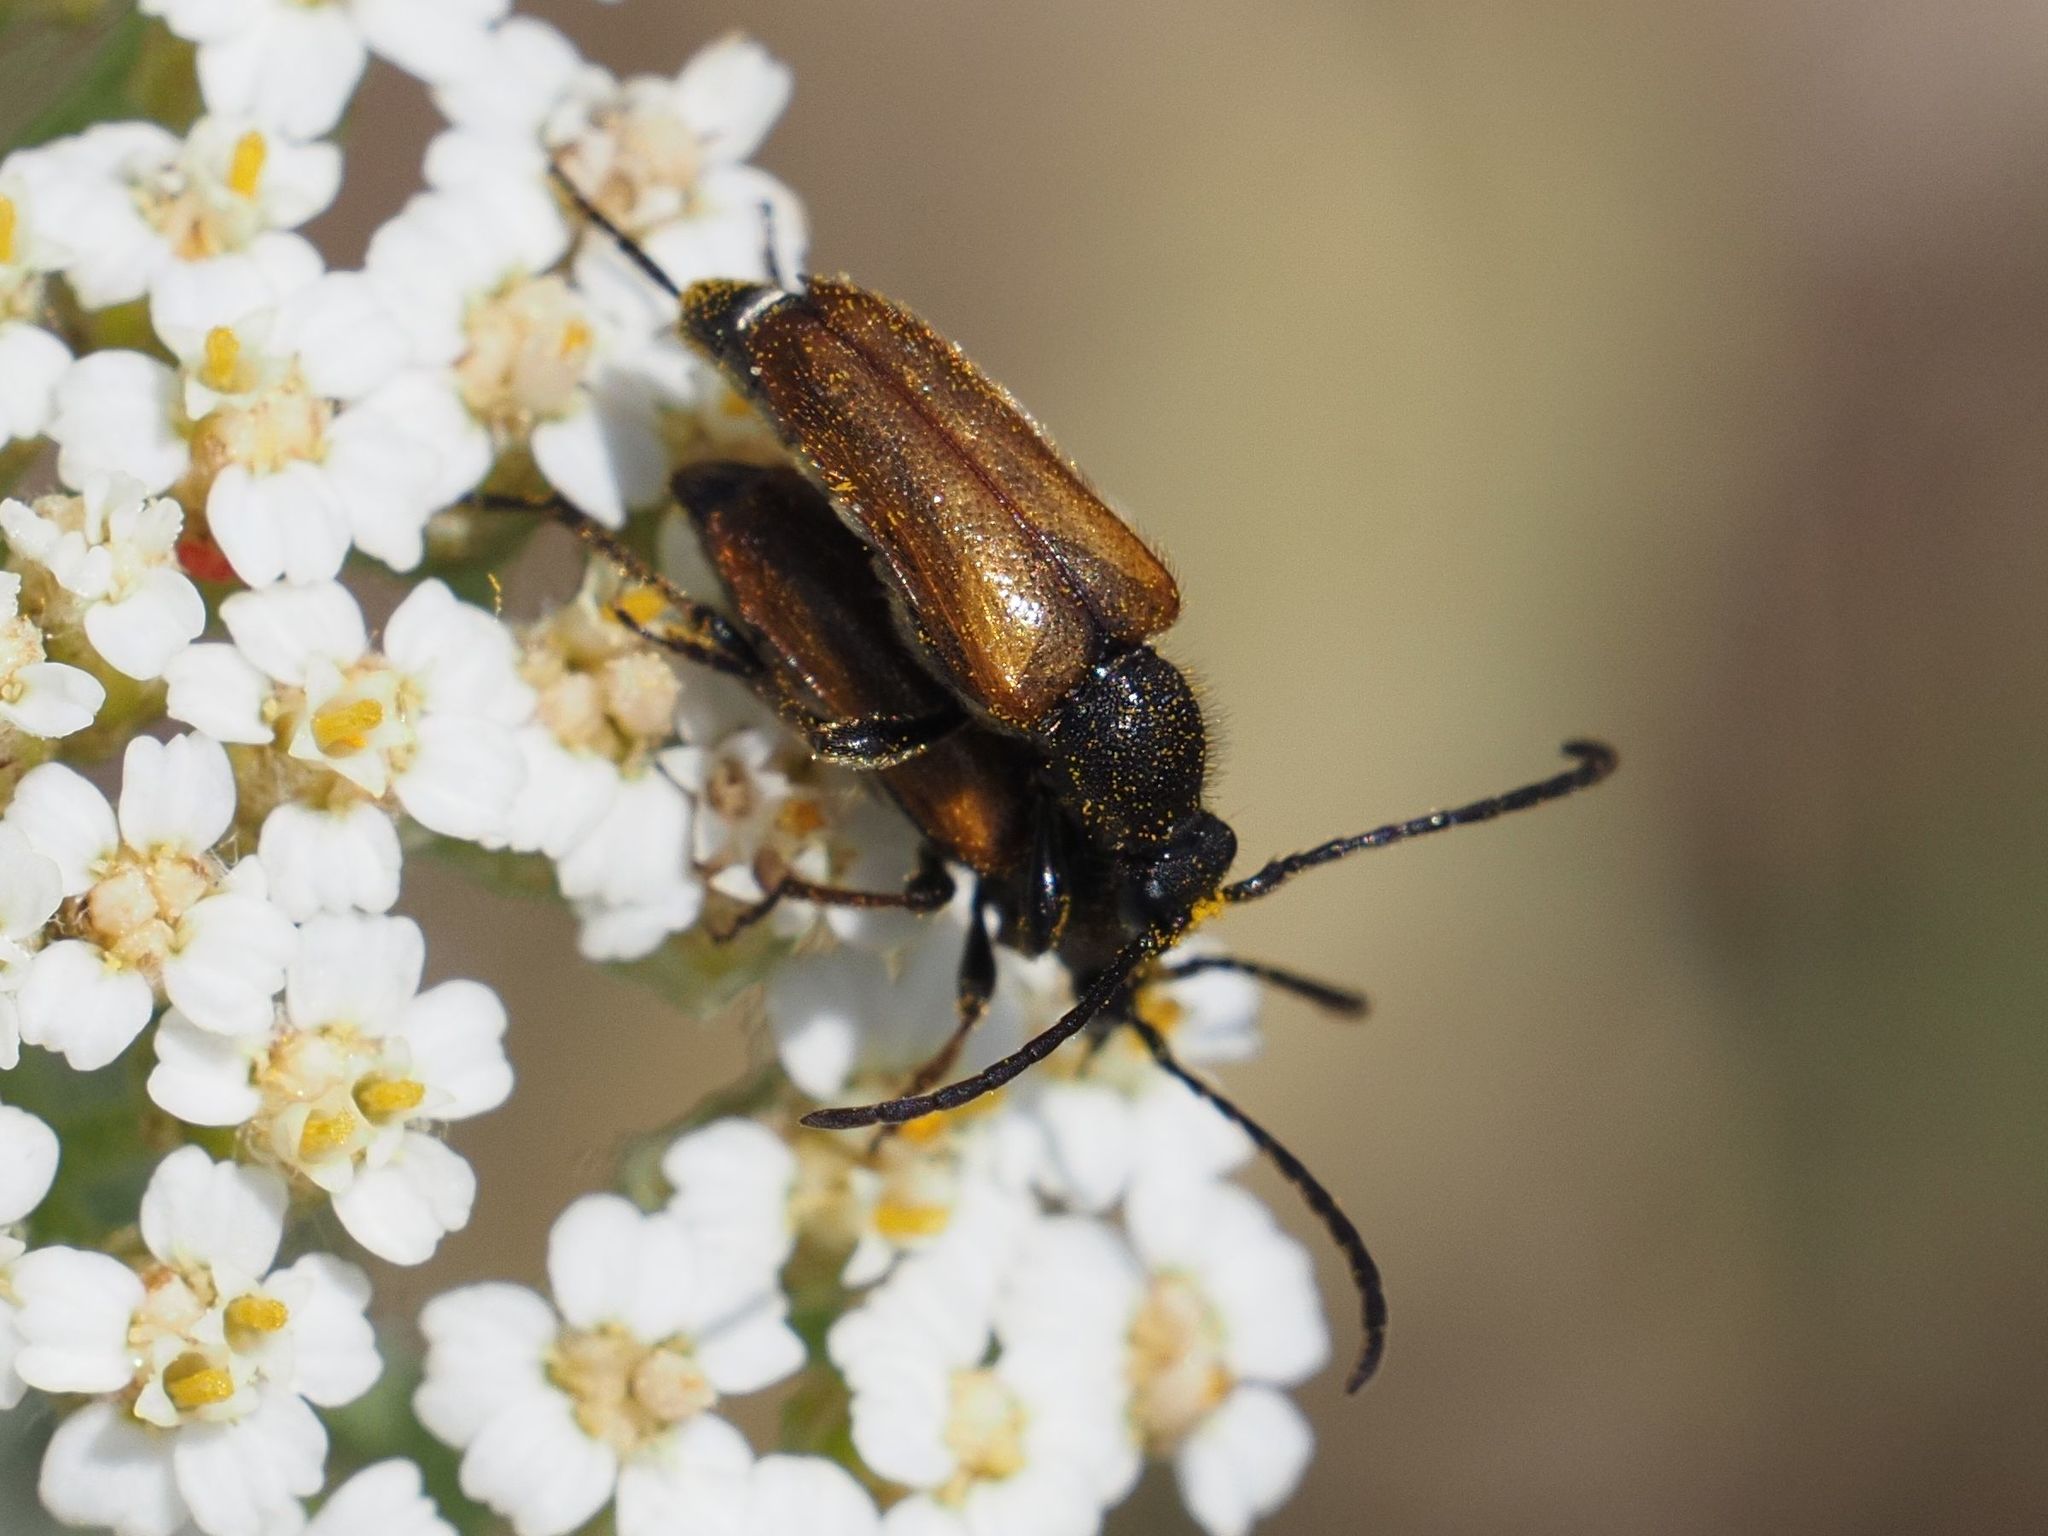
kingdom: Animalia
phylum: Arthropoda
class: Insecta
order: Coleoptera
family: Cerambycidae
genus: Pseudovadonia
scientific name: Pseudovadonia livida
